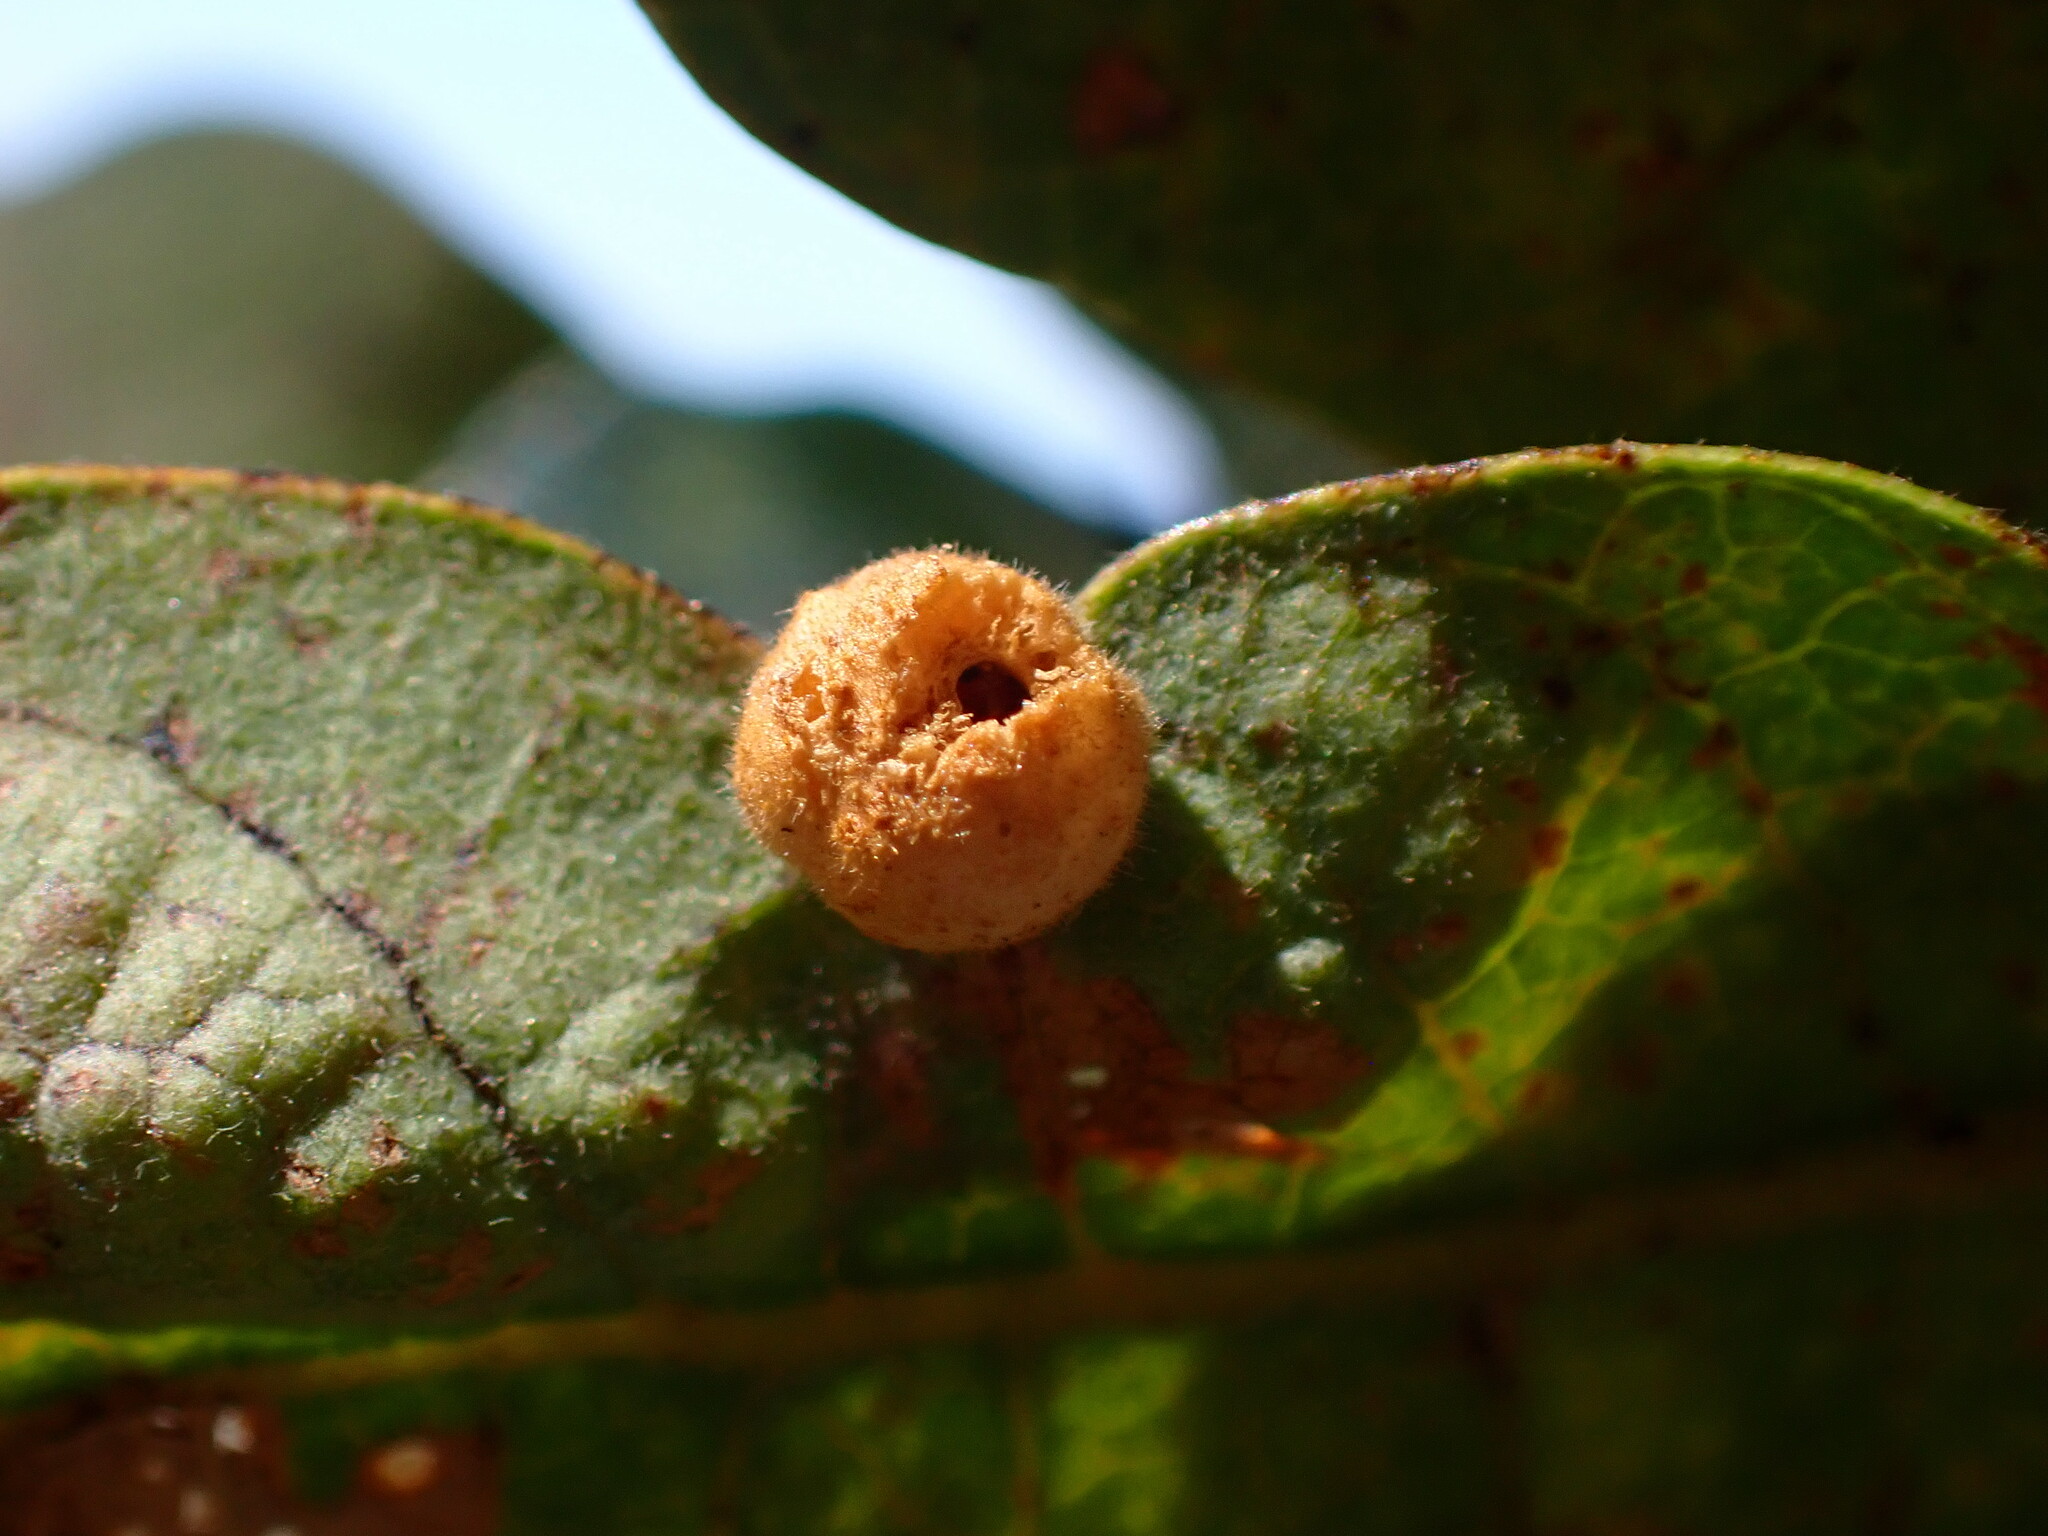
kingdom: Animalia
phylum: Arthropoda
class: Insecta
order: Hymenoptera
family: Cynipidae
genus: Andricus
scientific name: Andricus
